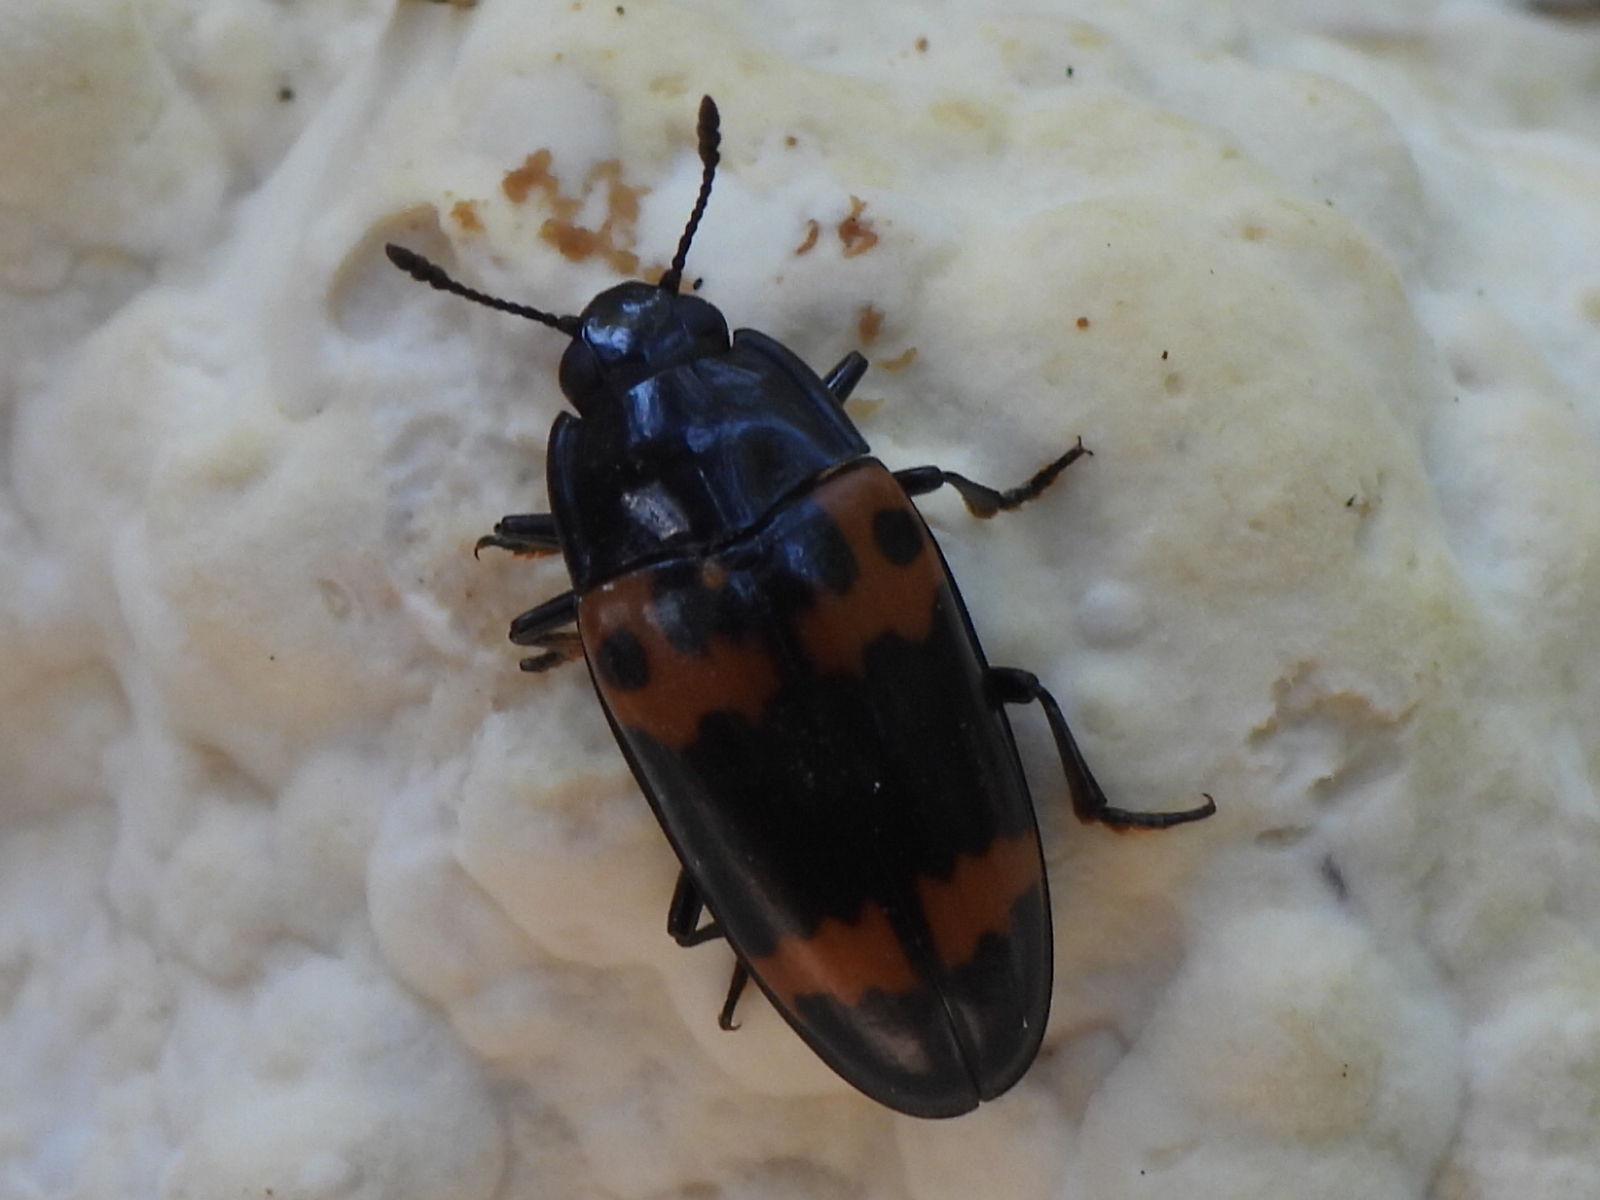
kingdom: Animalia
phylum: Arthropoda
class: Insecta
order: Coleoptera
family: Erotylidae
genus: Megalodacne
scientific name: Megalodacne fasciata
